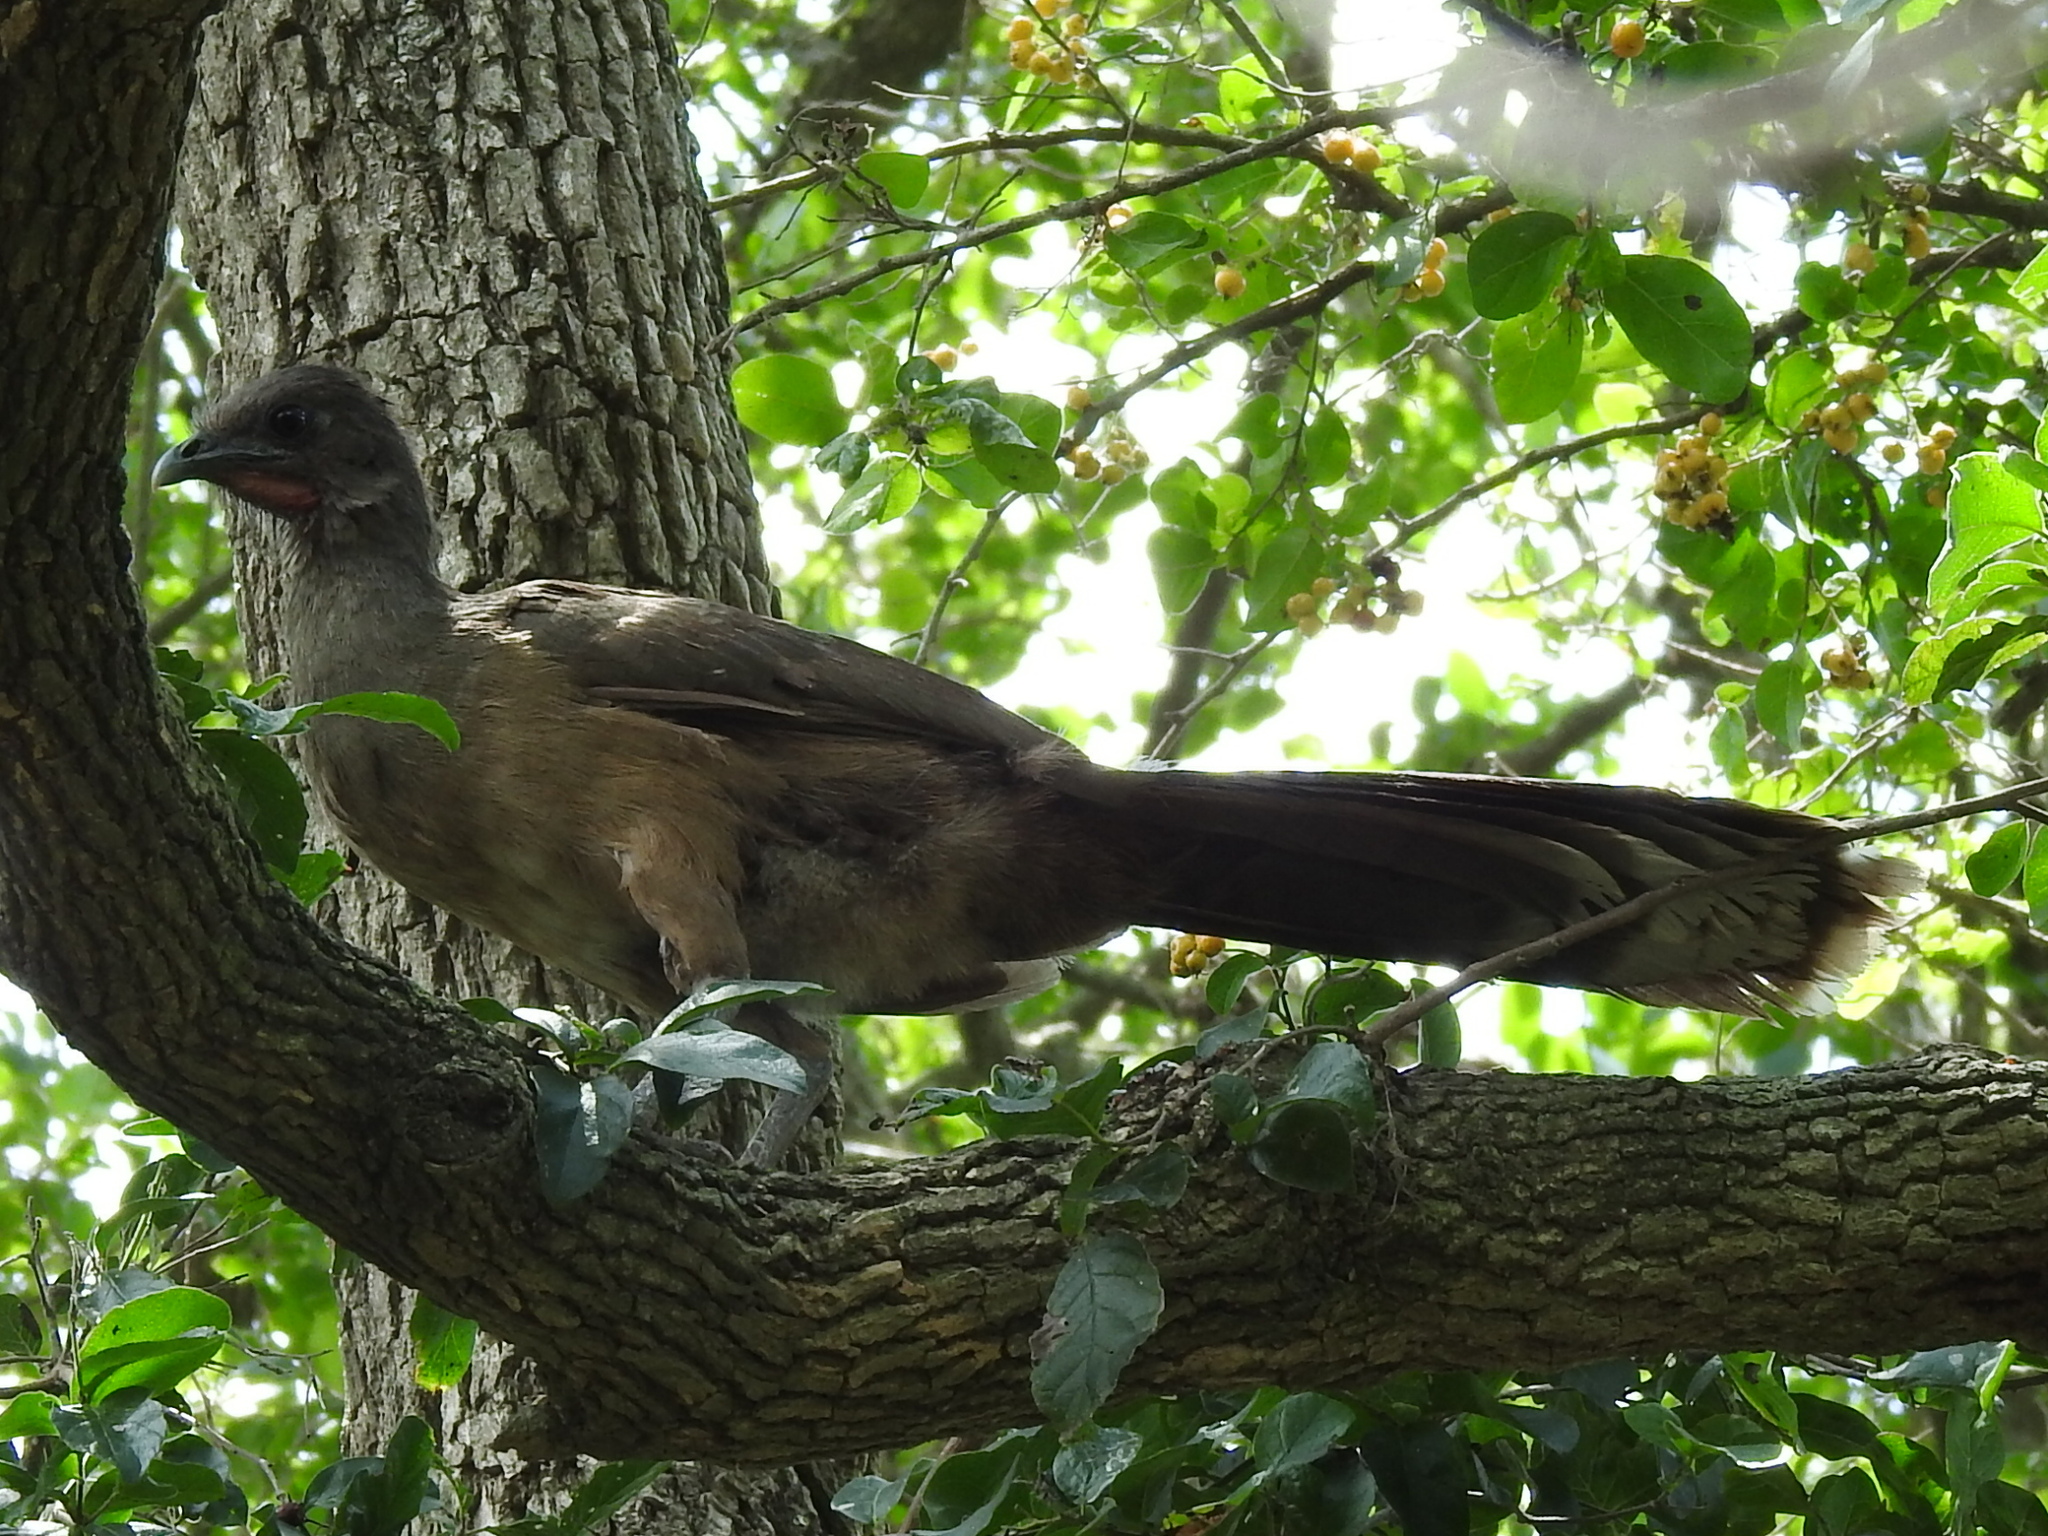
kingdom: Animalia
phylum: Chordata
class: Aves
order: Galliformes
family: Cracidae
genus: Ortalis
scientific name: Ortalis vetula
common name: Plain chachalaca
